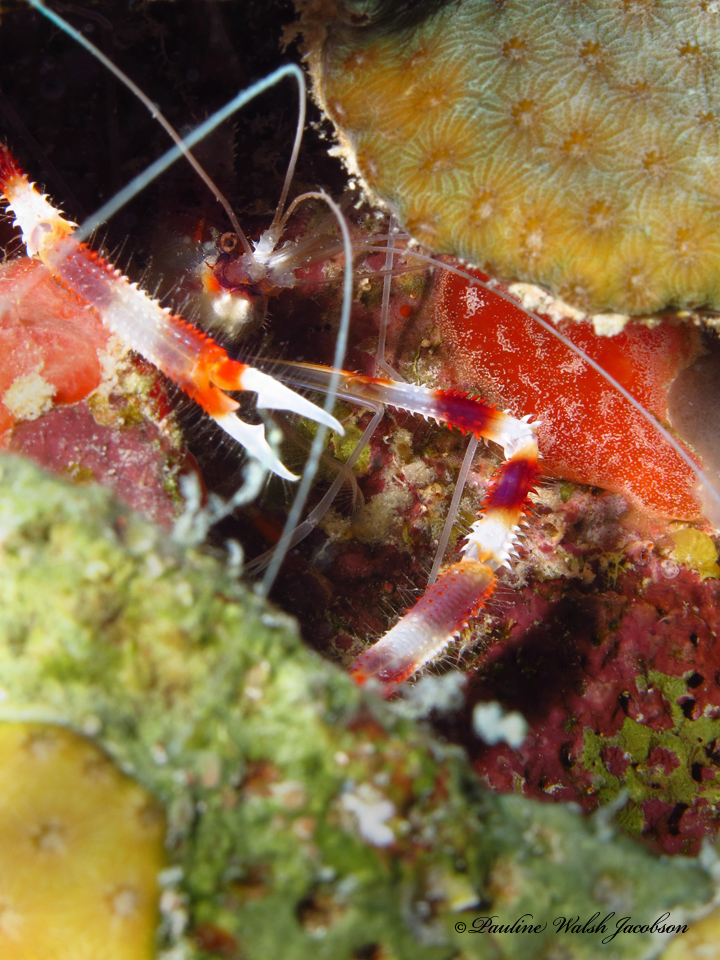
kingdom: Animalia
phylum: Arthropoda
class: Malacostraca
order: Decapoda
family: Stenopodidae
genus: Stenopus
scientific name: Stenopus hispidus
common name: Banded coral shrimp
